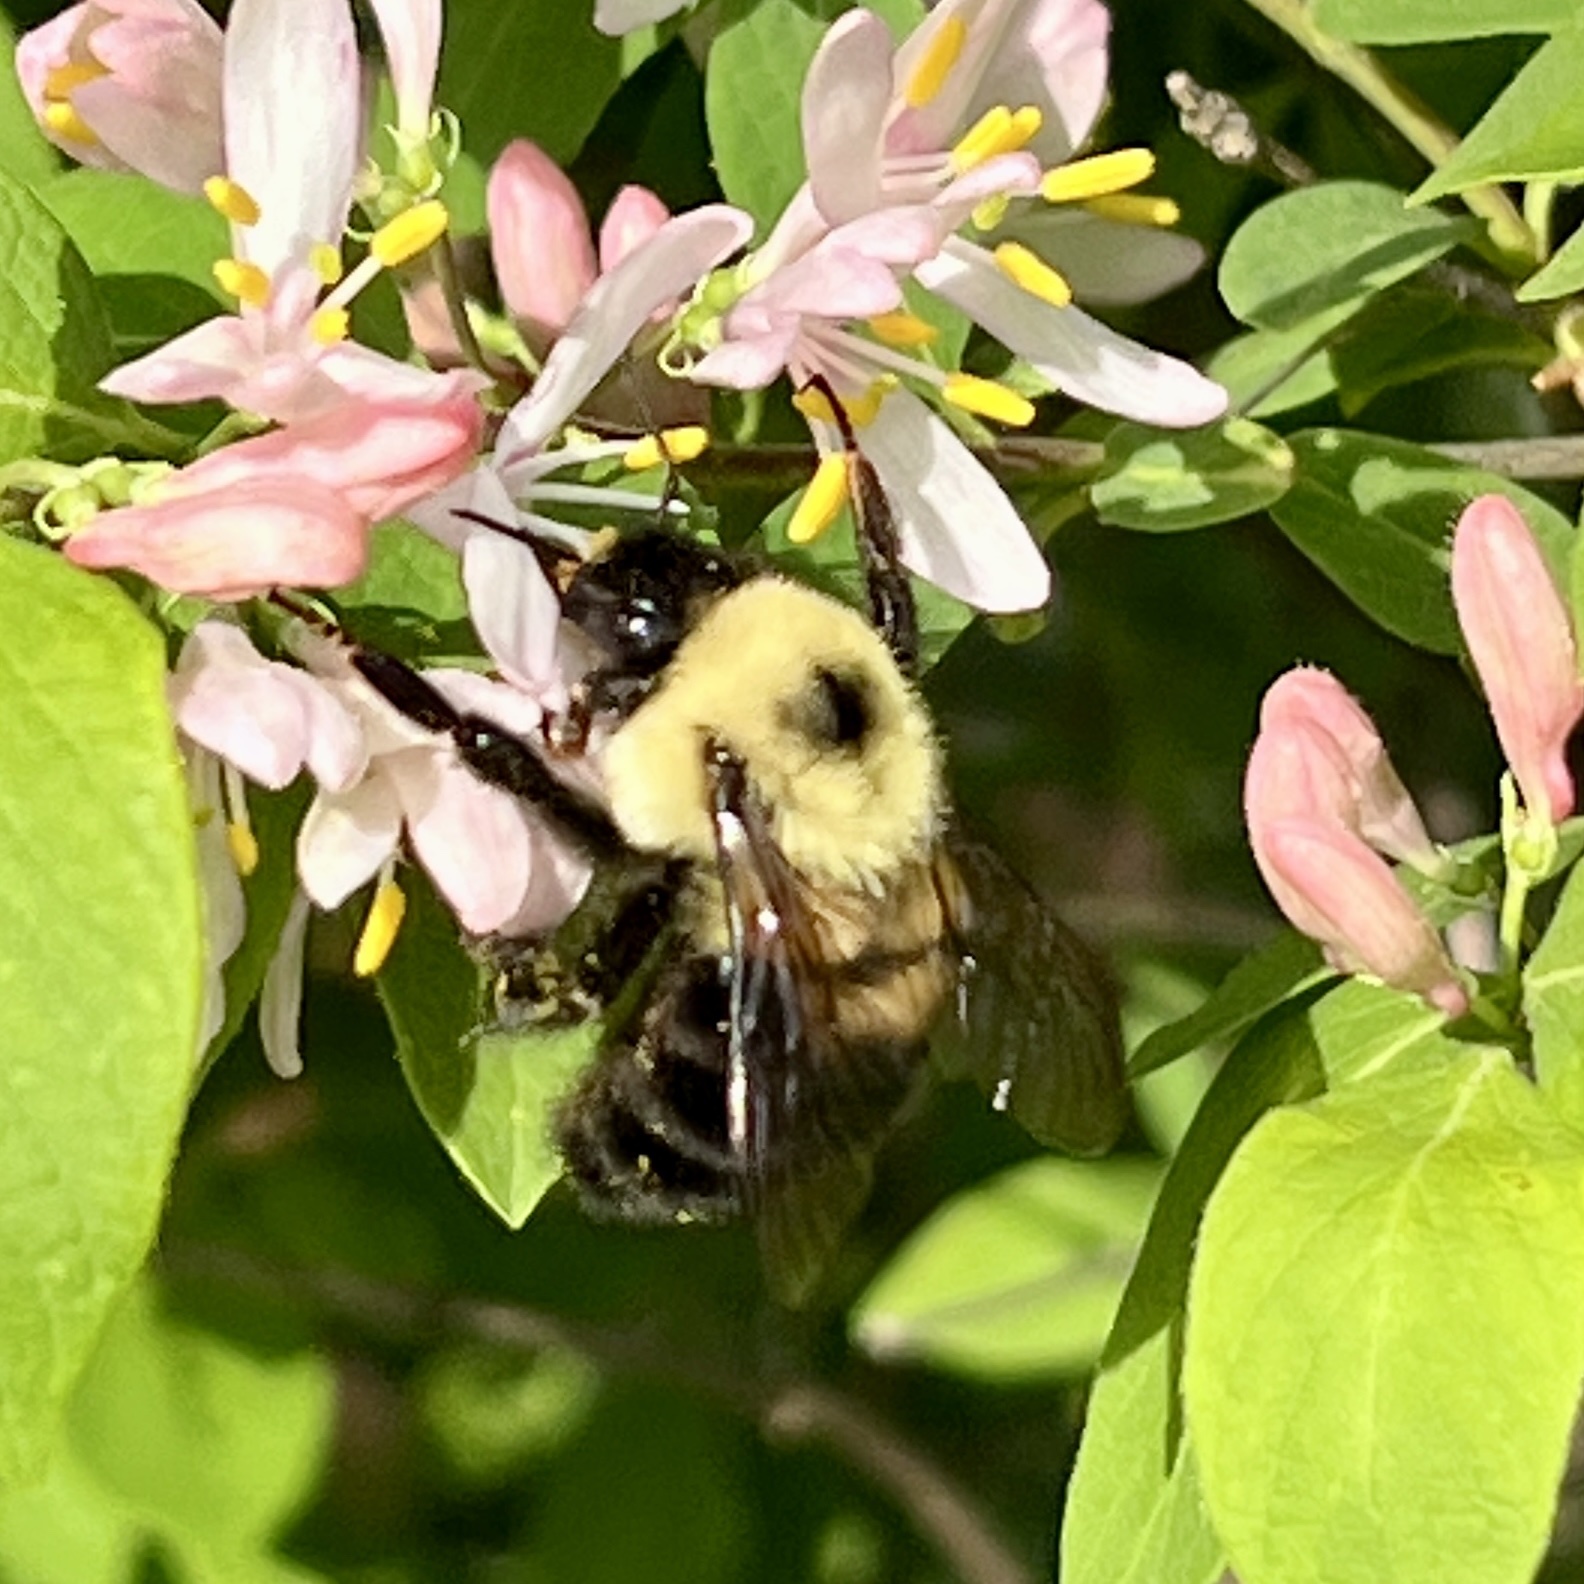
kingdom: Animalia
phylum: Arthropoda
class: Insecta
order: Hymenoptera
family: Apidae
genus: Bombus
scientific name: Bombus bimaculatus
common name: Two-spotted bumble bee
